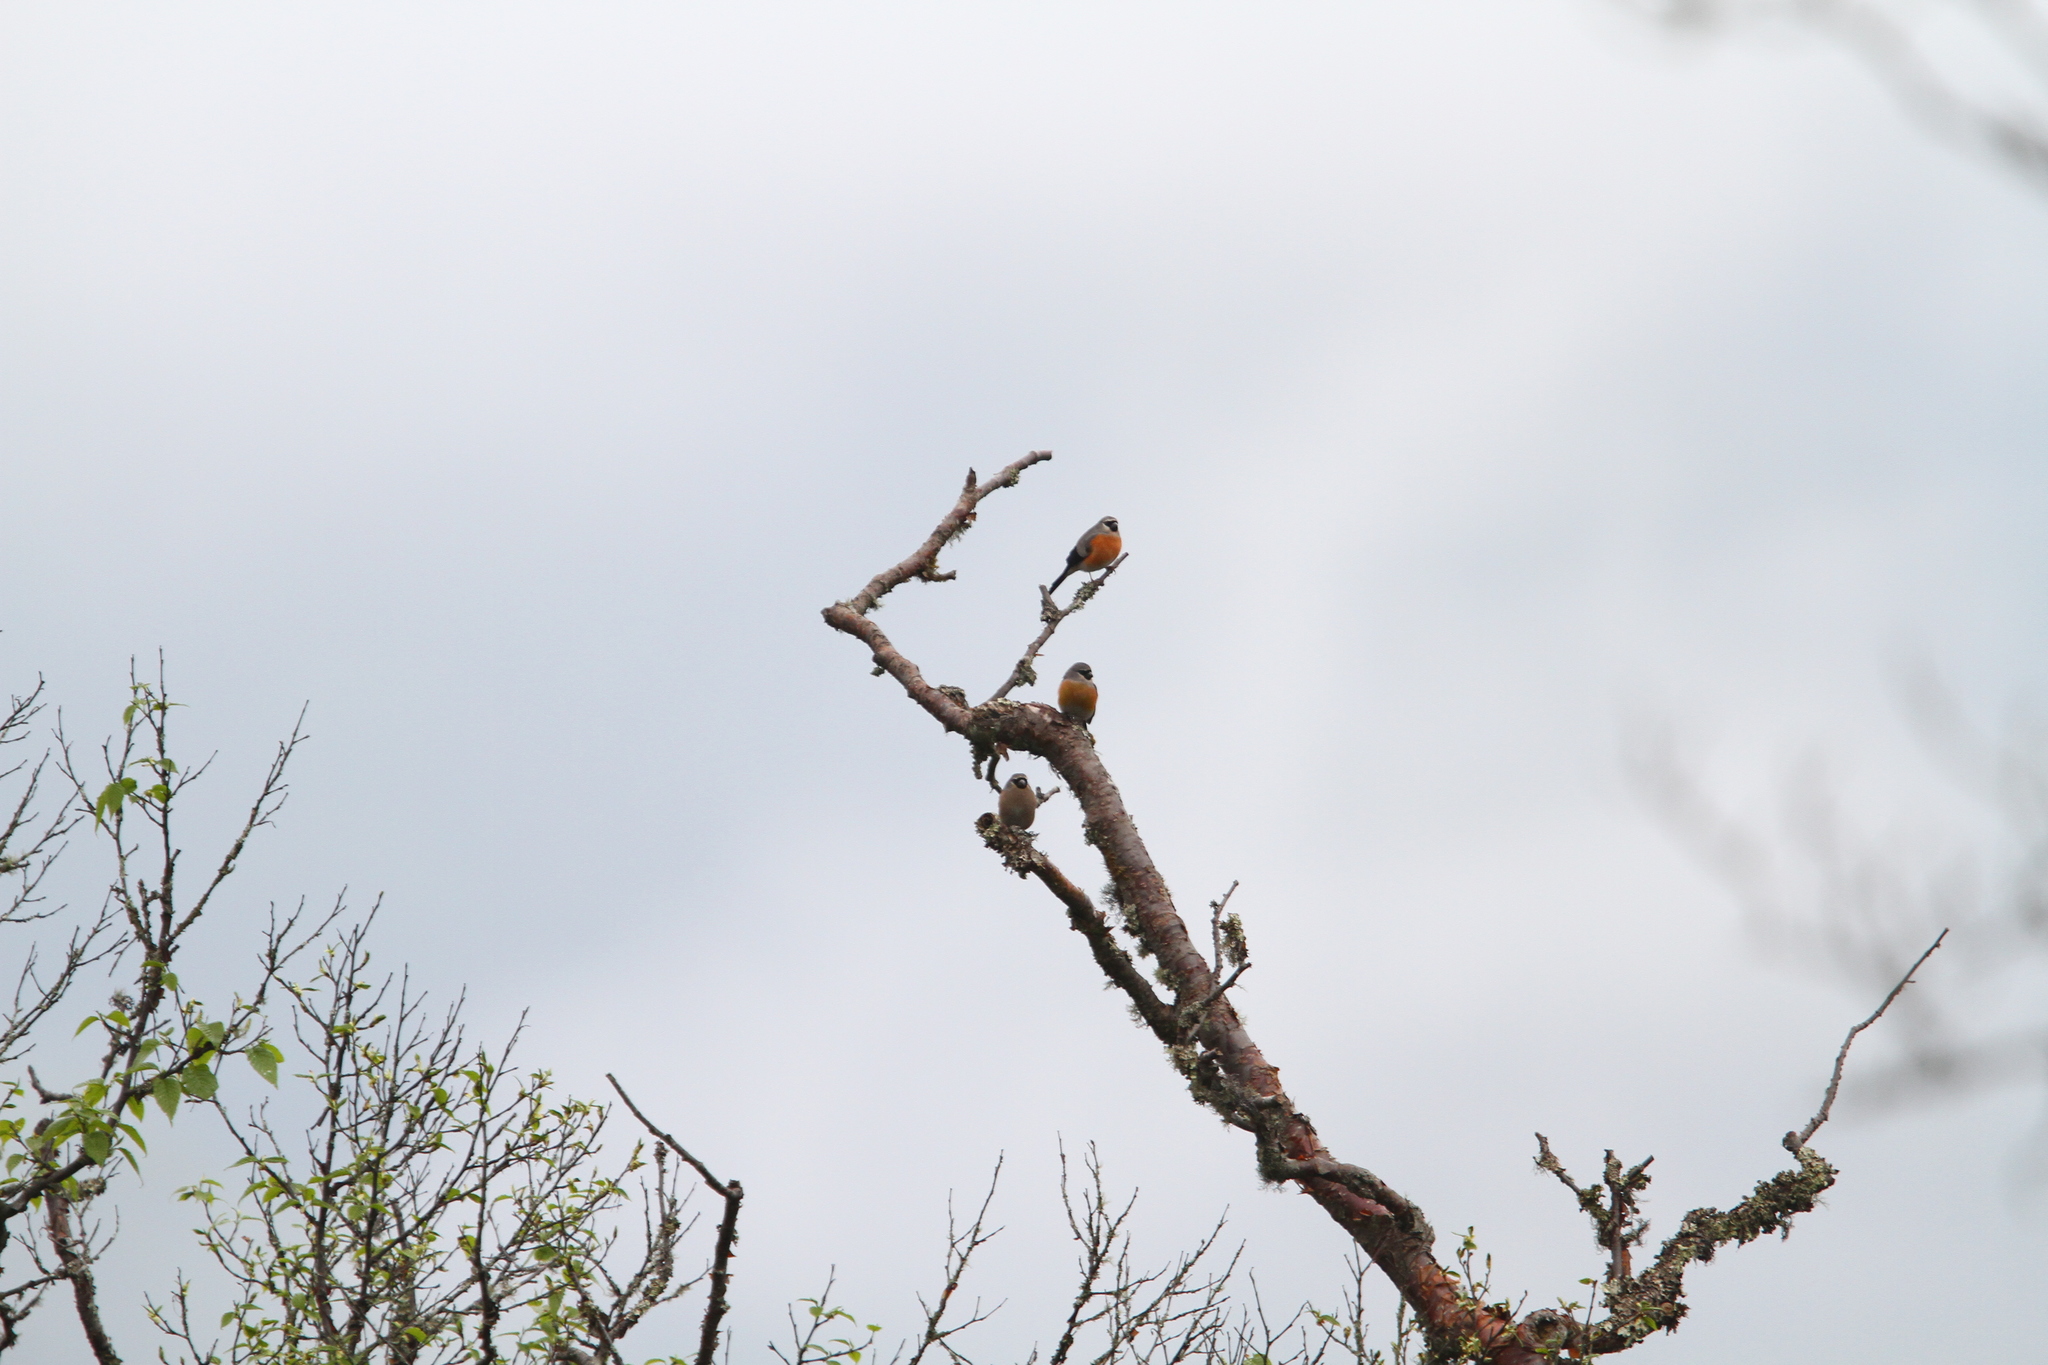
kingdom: Animalia
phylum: Chordata
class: Aves
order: Passeriformes
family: Fringillidae
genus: Pyrrhula
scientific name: Pyrrhula erythaca
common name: Grey-headed bullfinch
